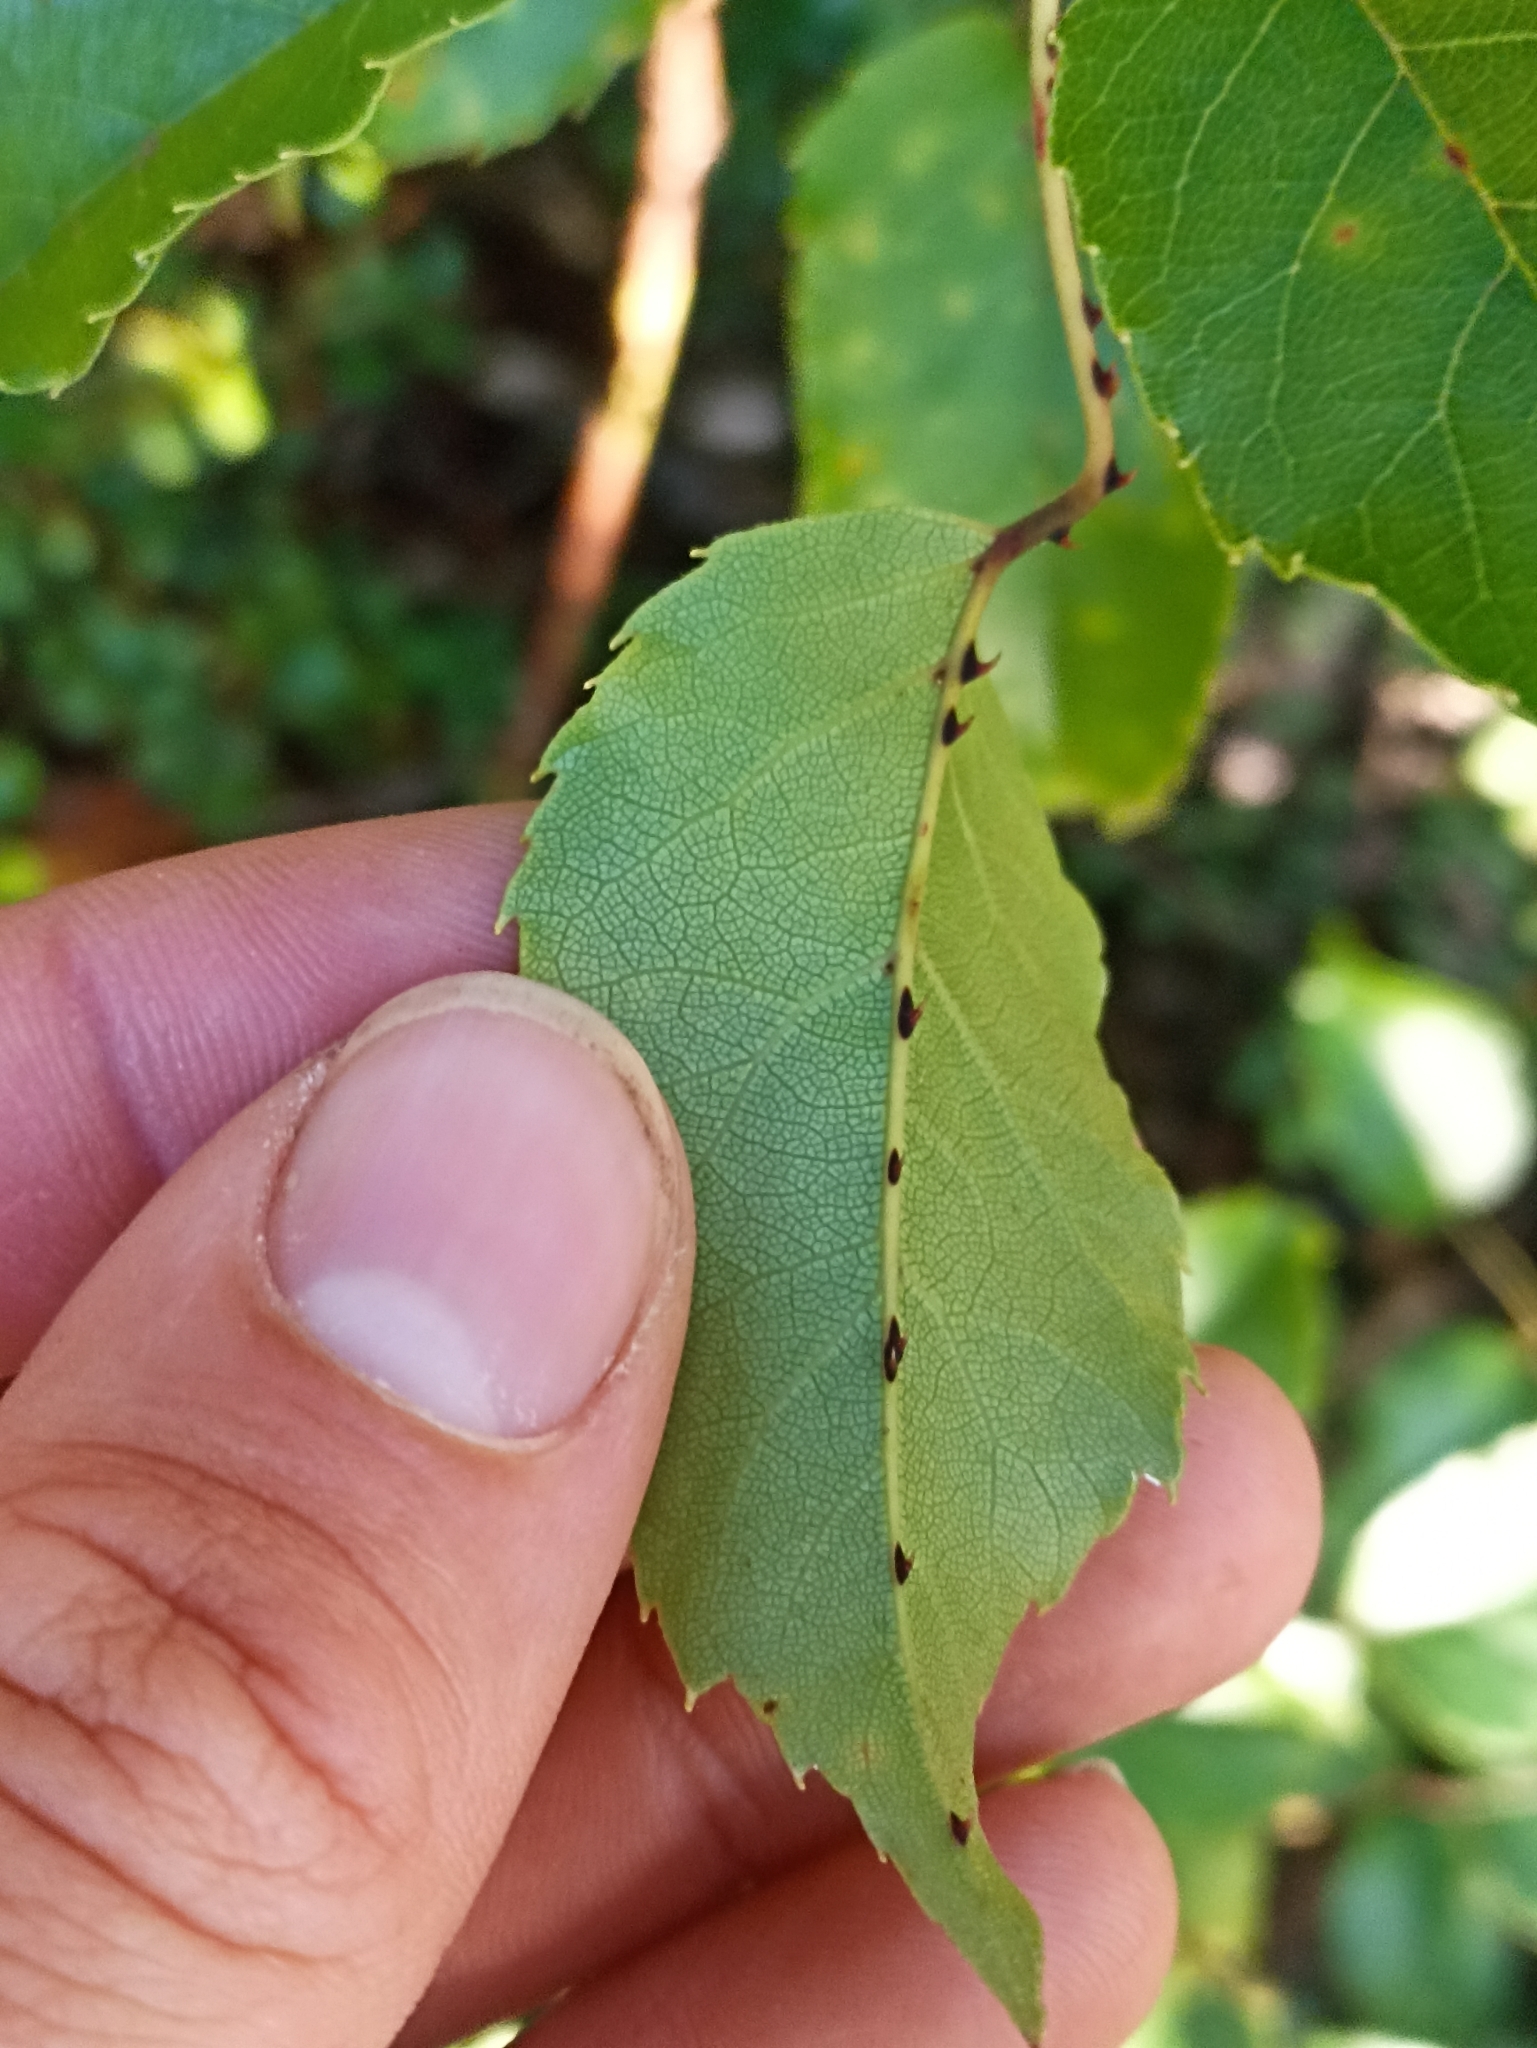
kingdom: Plantae
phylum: Tracheophyta
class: Magnoliopsida
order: Rosales
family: Rosaceae
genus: Rubus
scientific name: Rubus cissoides
